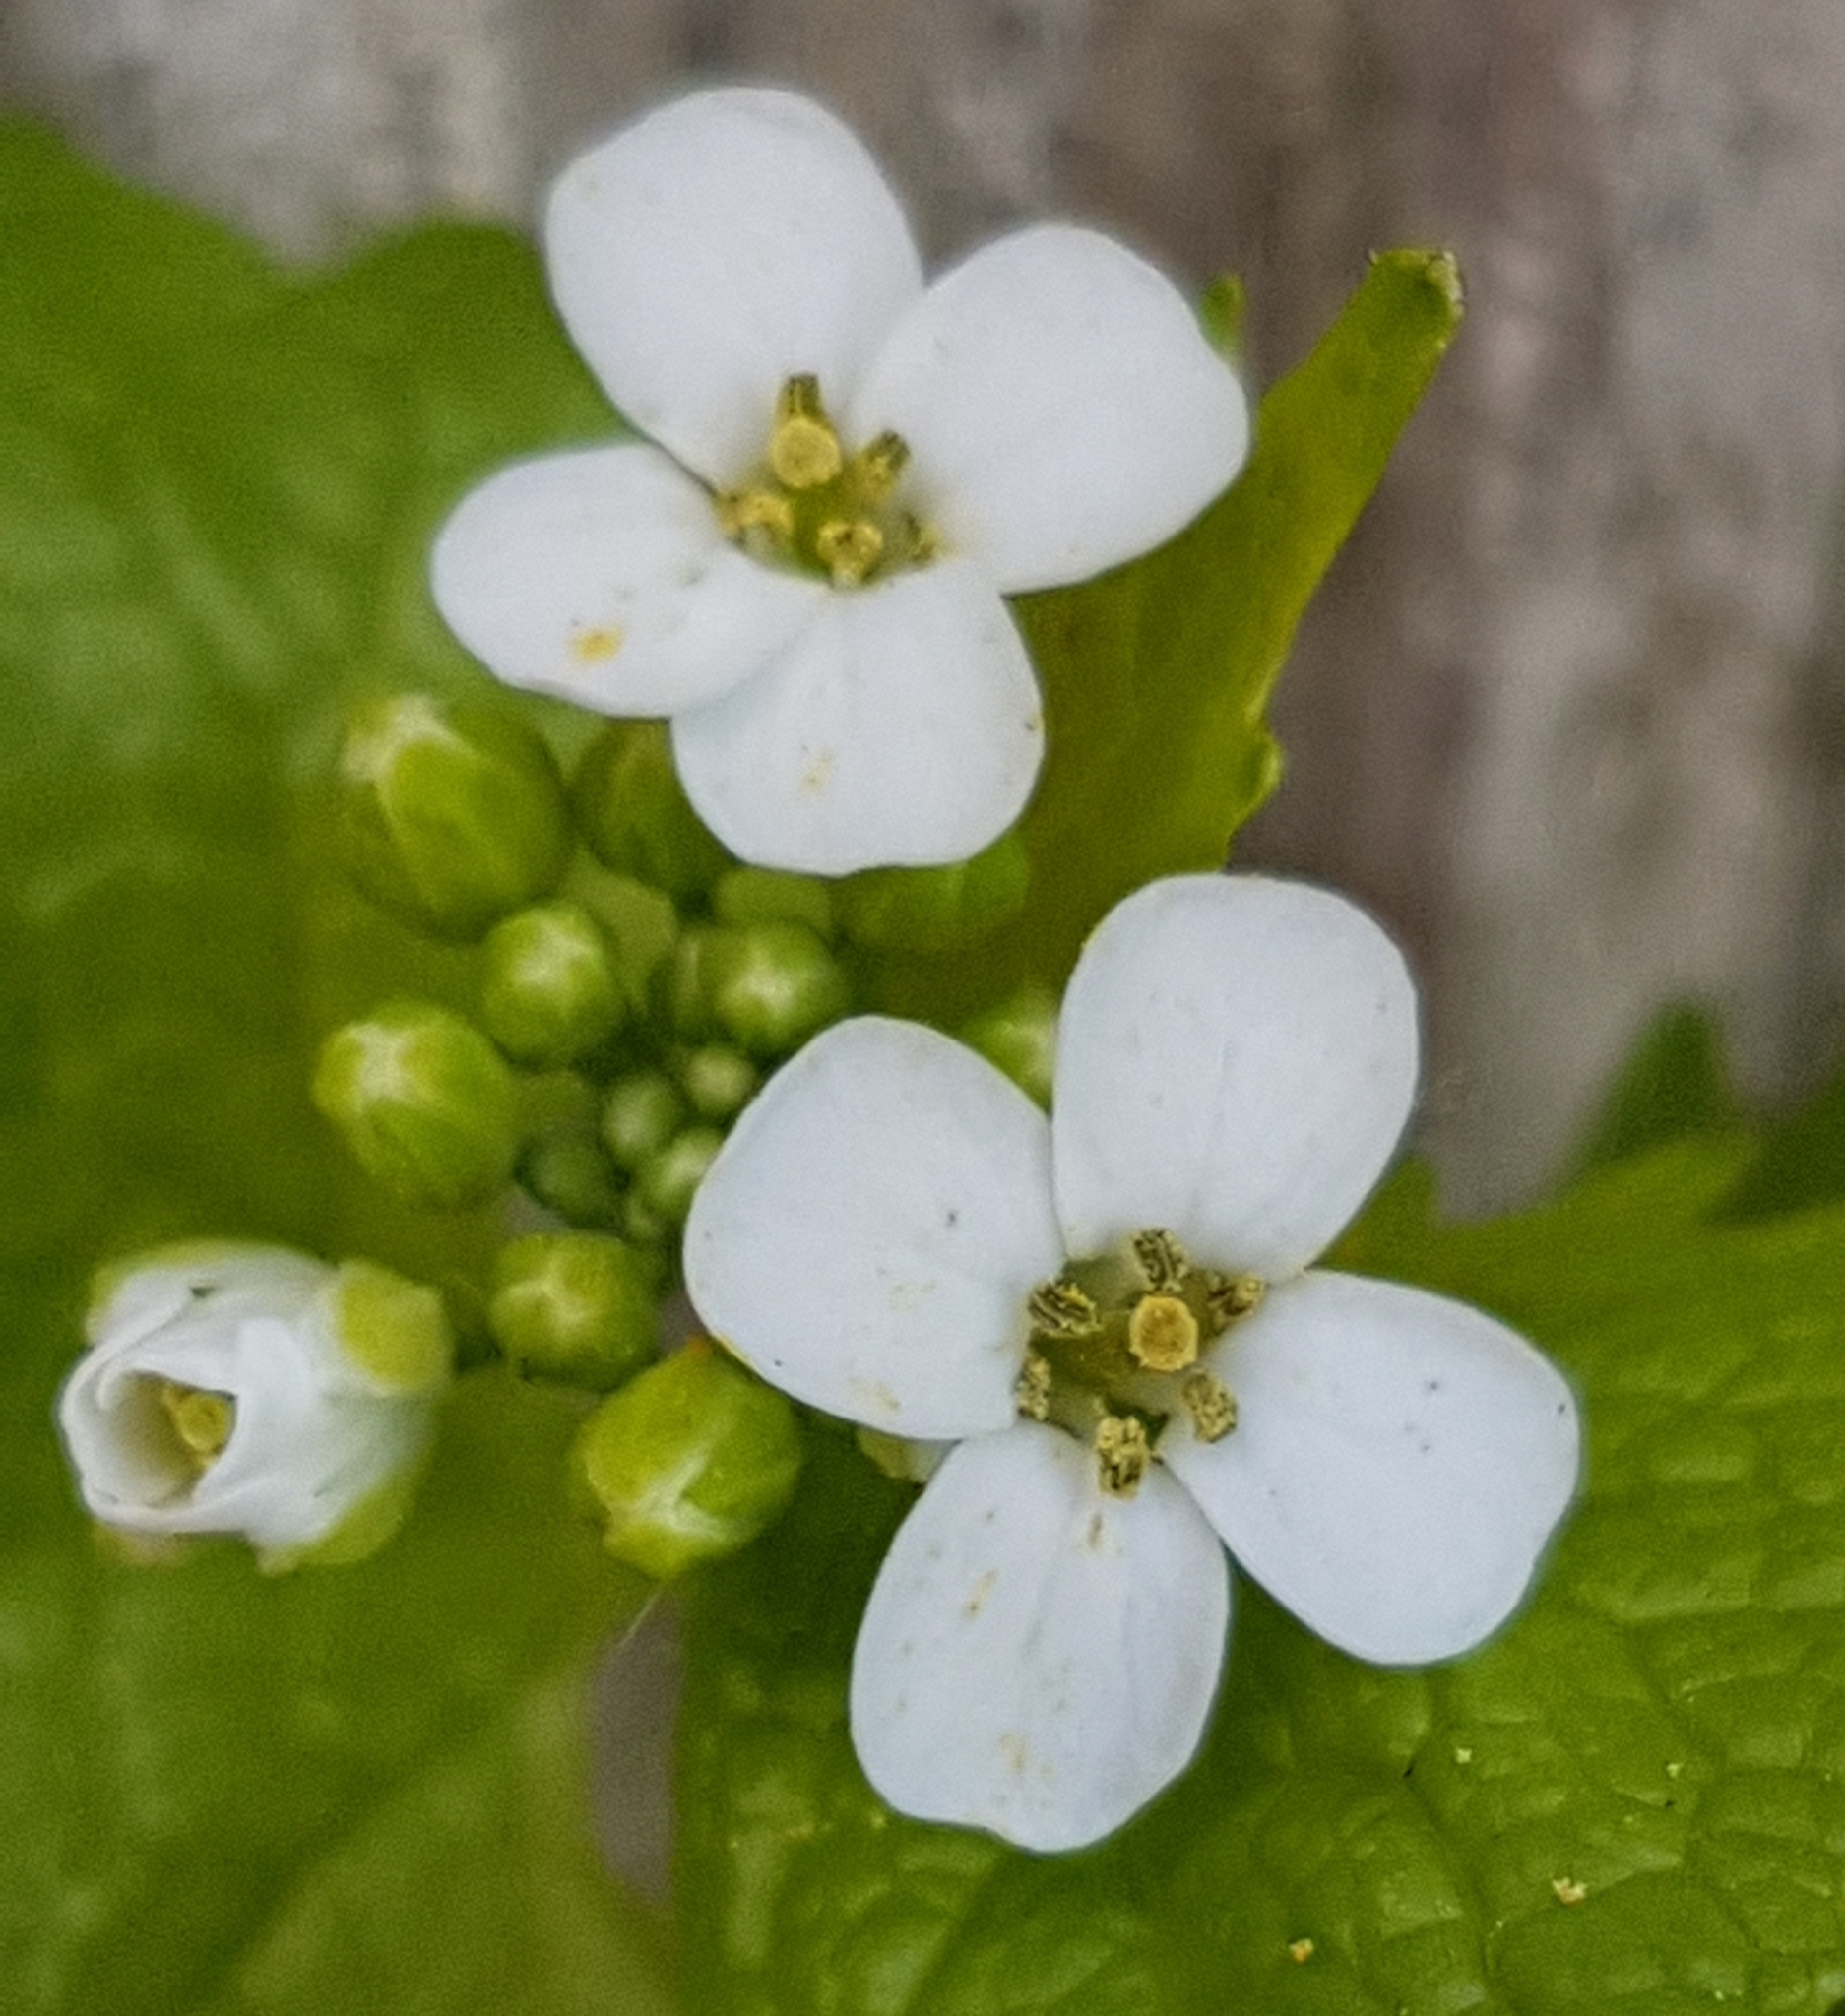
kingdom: Plantae
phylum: Tracheophyta
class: Magnoliopsida
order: Brassicales
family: Brassicaceae
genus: Alliaria
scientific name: Alliaria petiolata
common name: Garlic mustard
